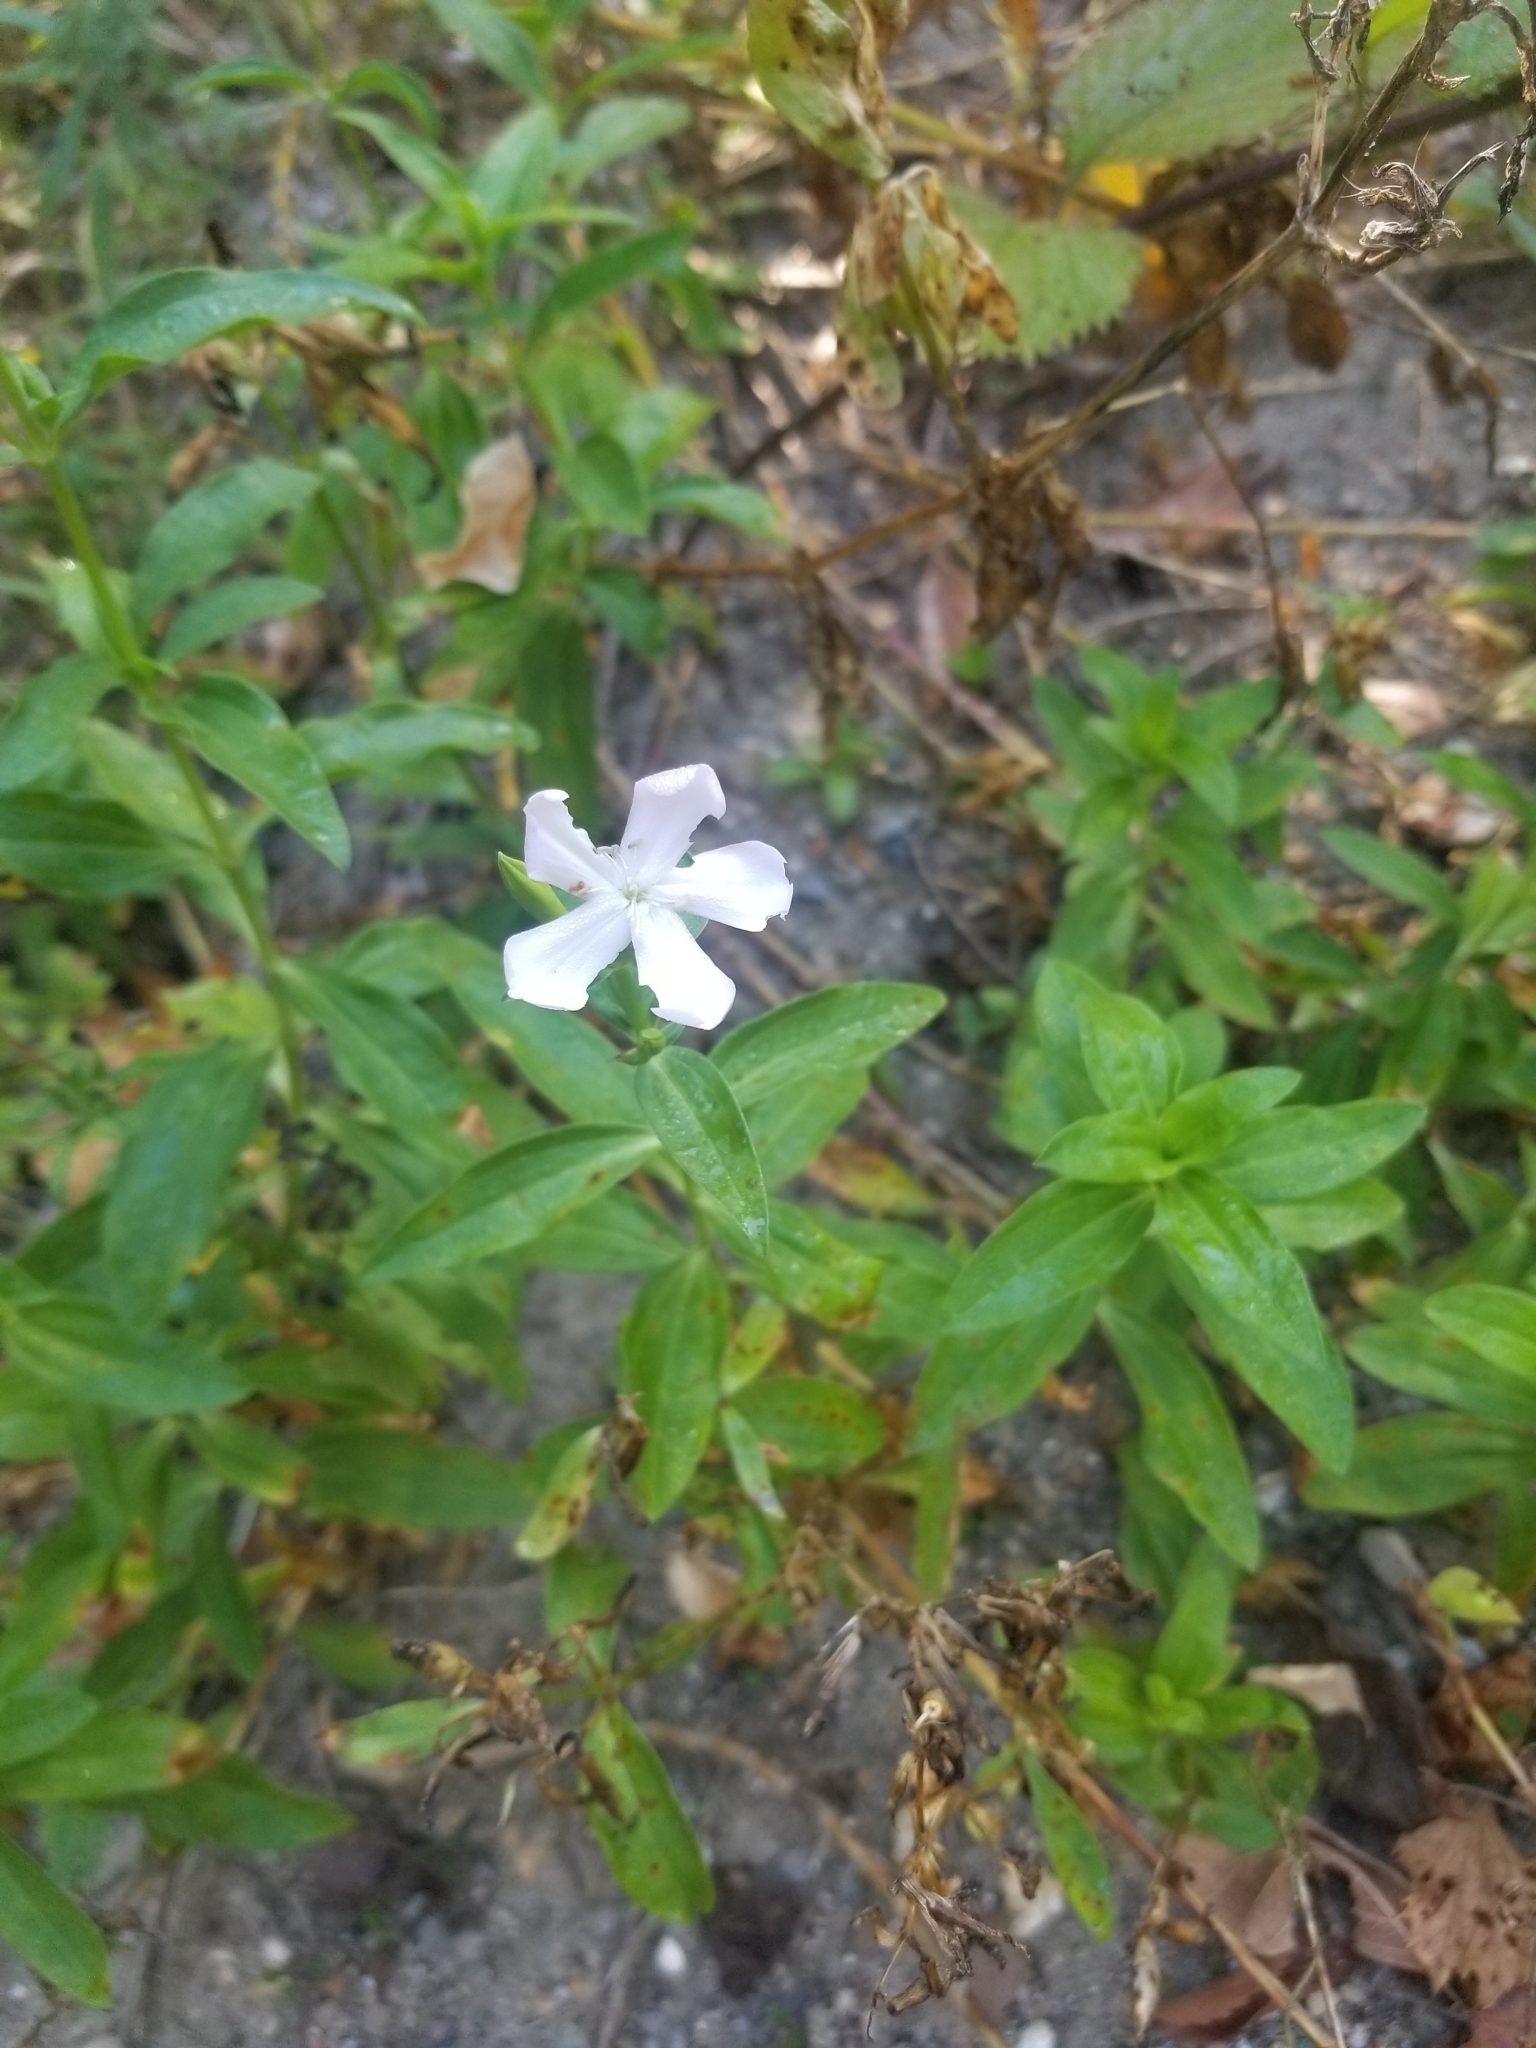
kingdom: Plantae
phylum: Tracheophyta
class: Magnoliopsida
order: Caryophyllales
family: Caryophyllaceae
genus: Saponaria
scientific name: Saponaria officinalis
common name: Soapwort
